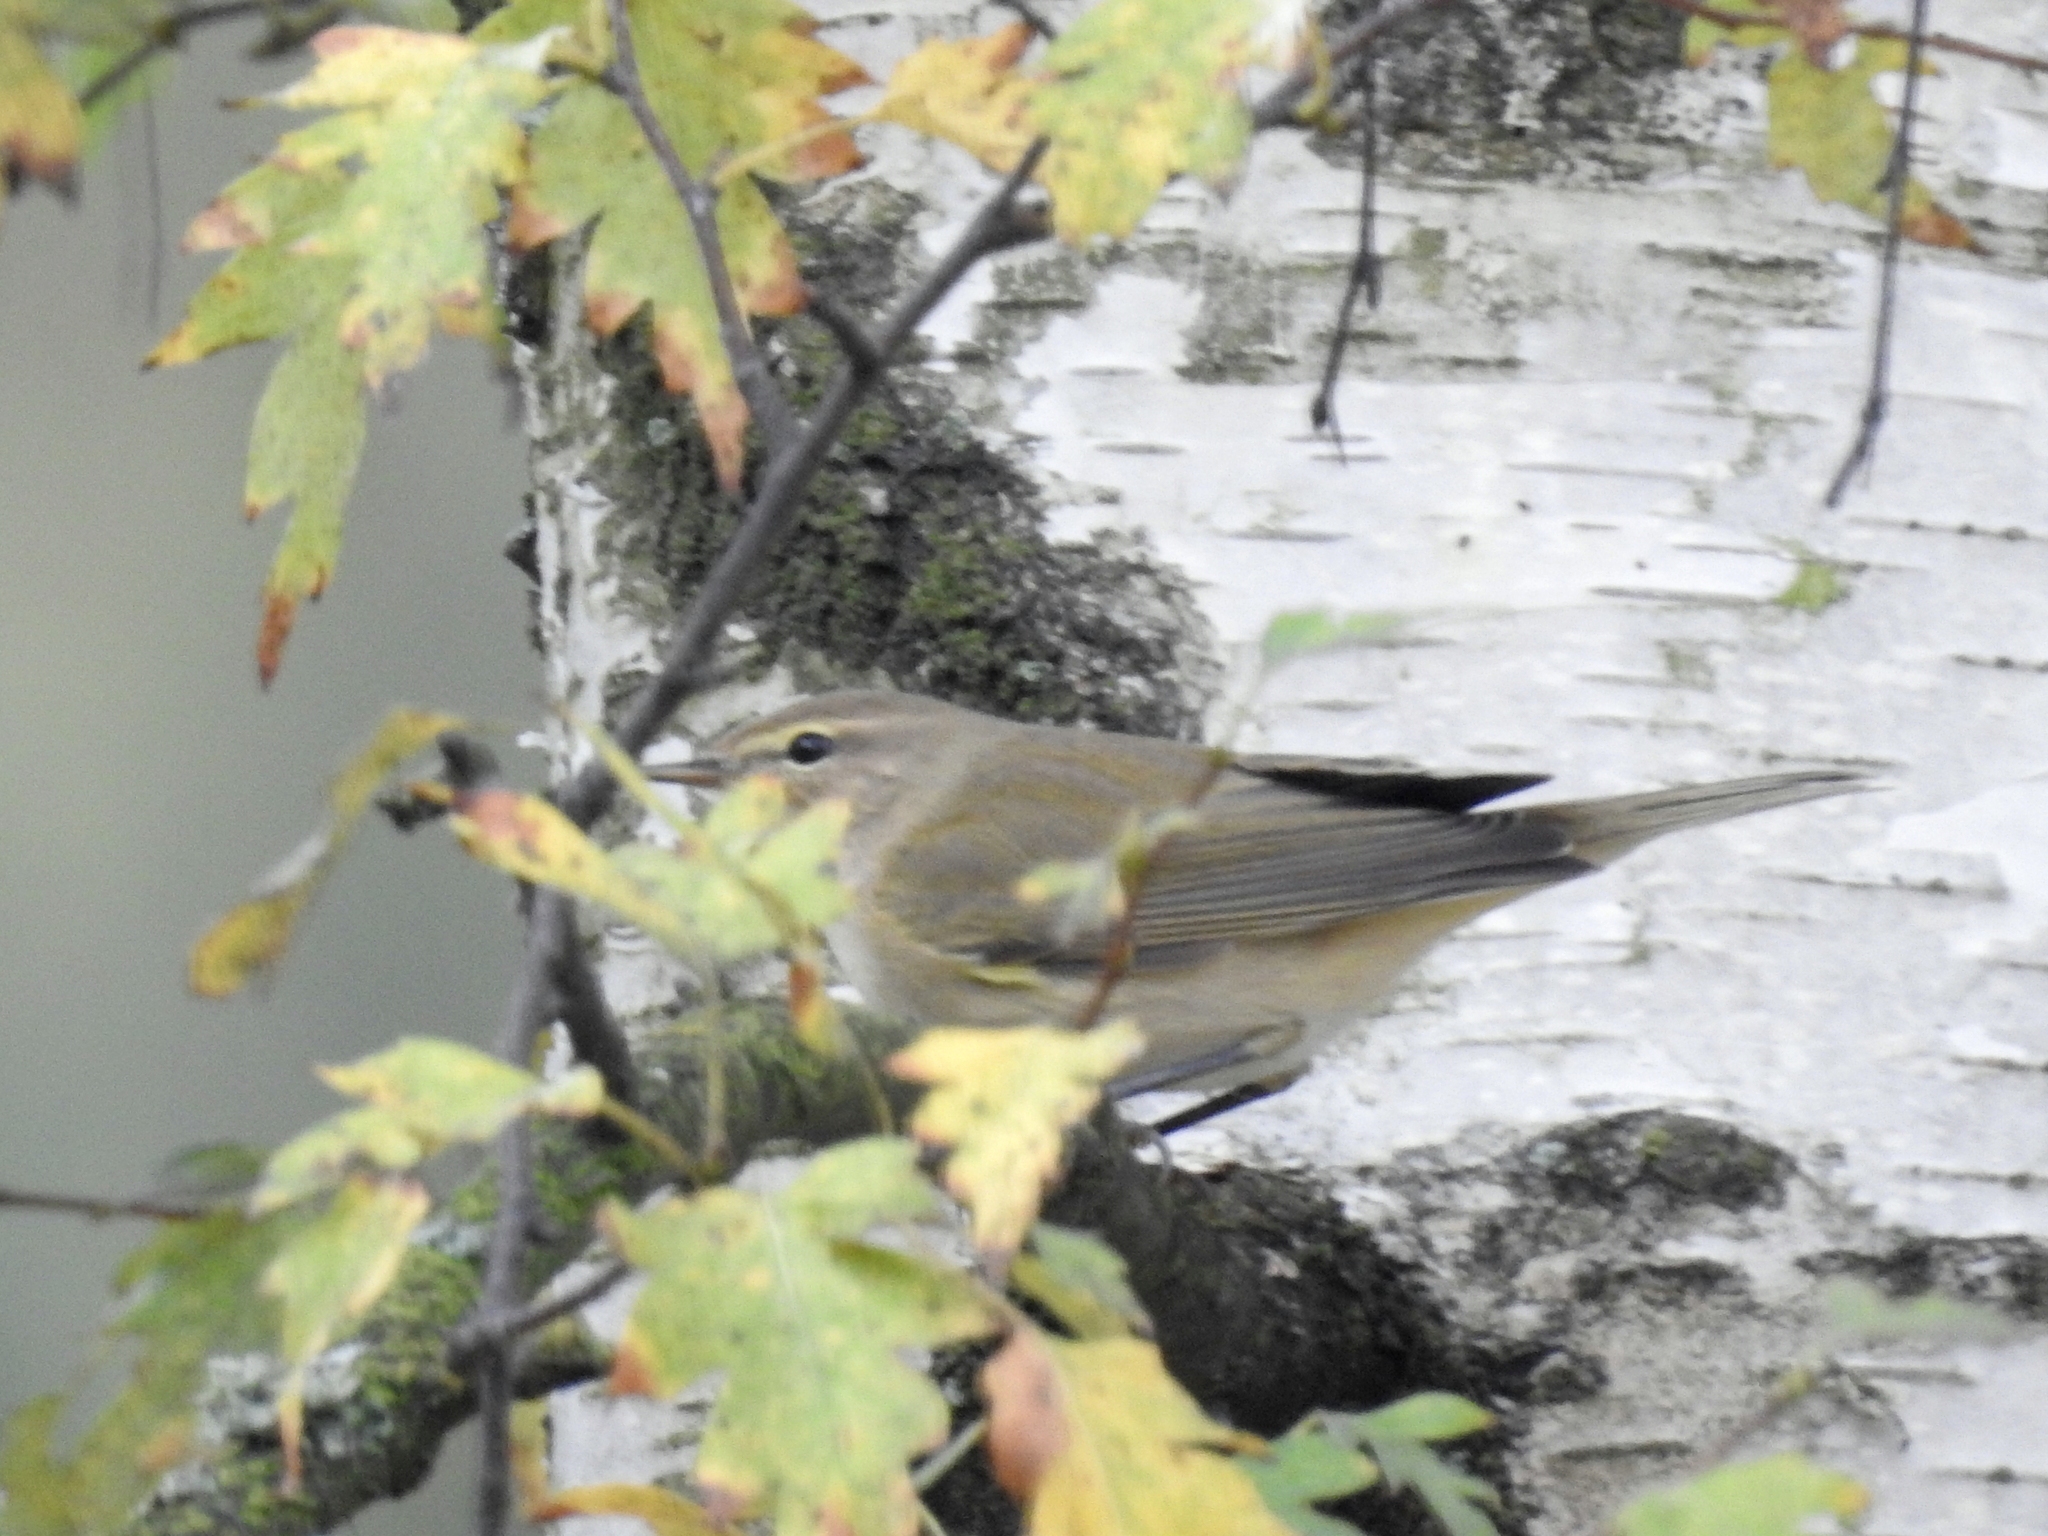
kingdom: Animalia
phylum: Chordata
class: Aves
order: Passeriformes
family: Phylloscopidae
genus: Phylloscopus
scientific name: Phylloscopus collybita
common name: Common chiffchaff
